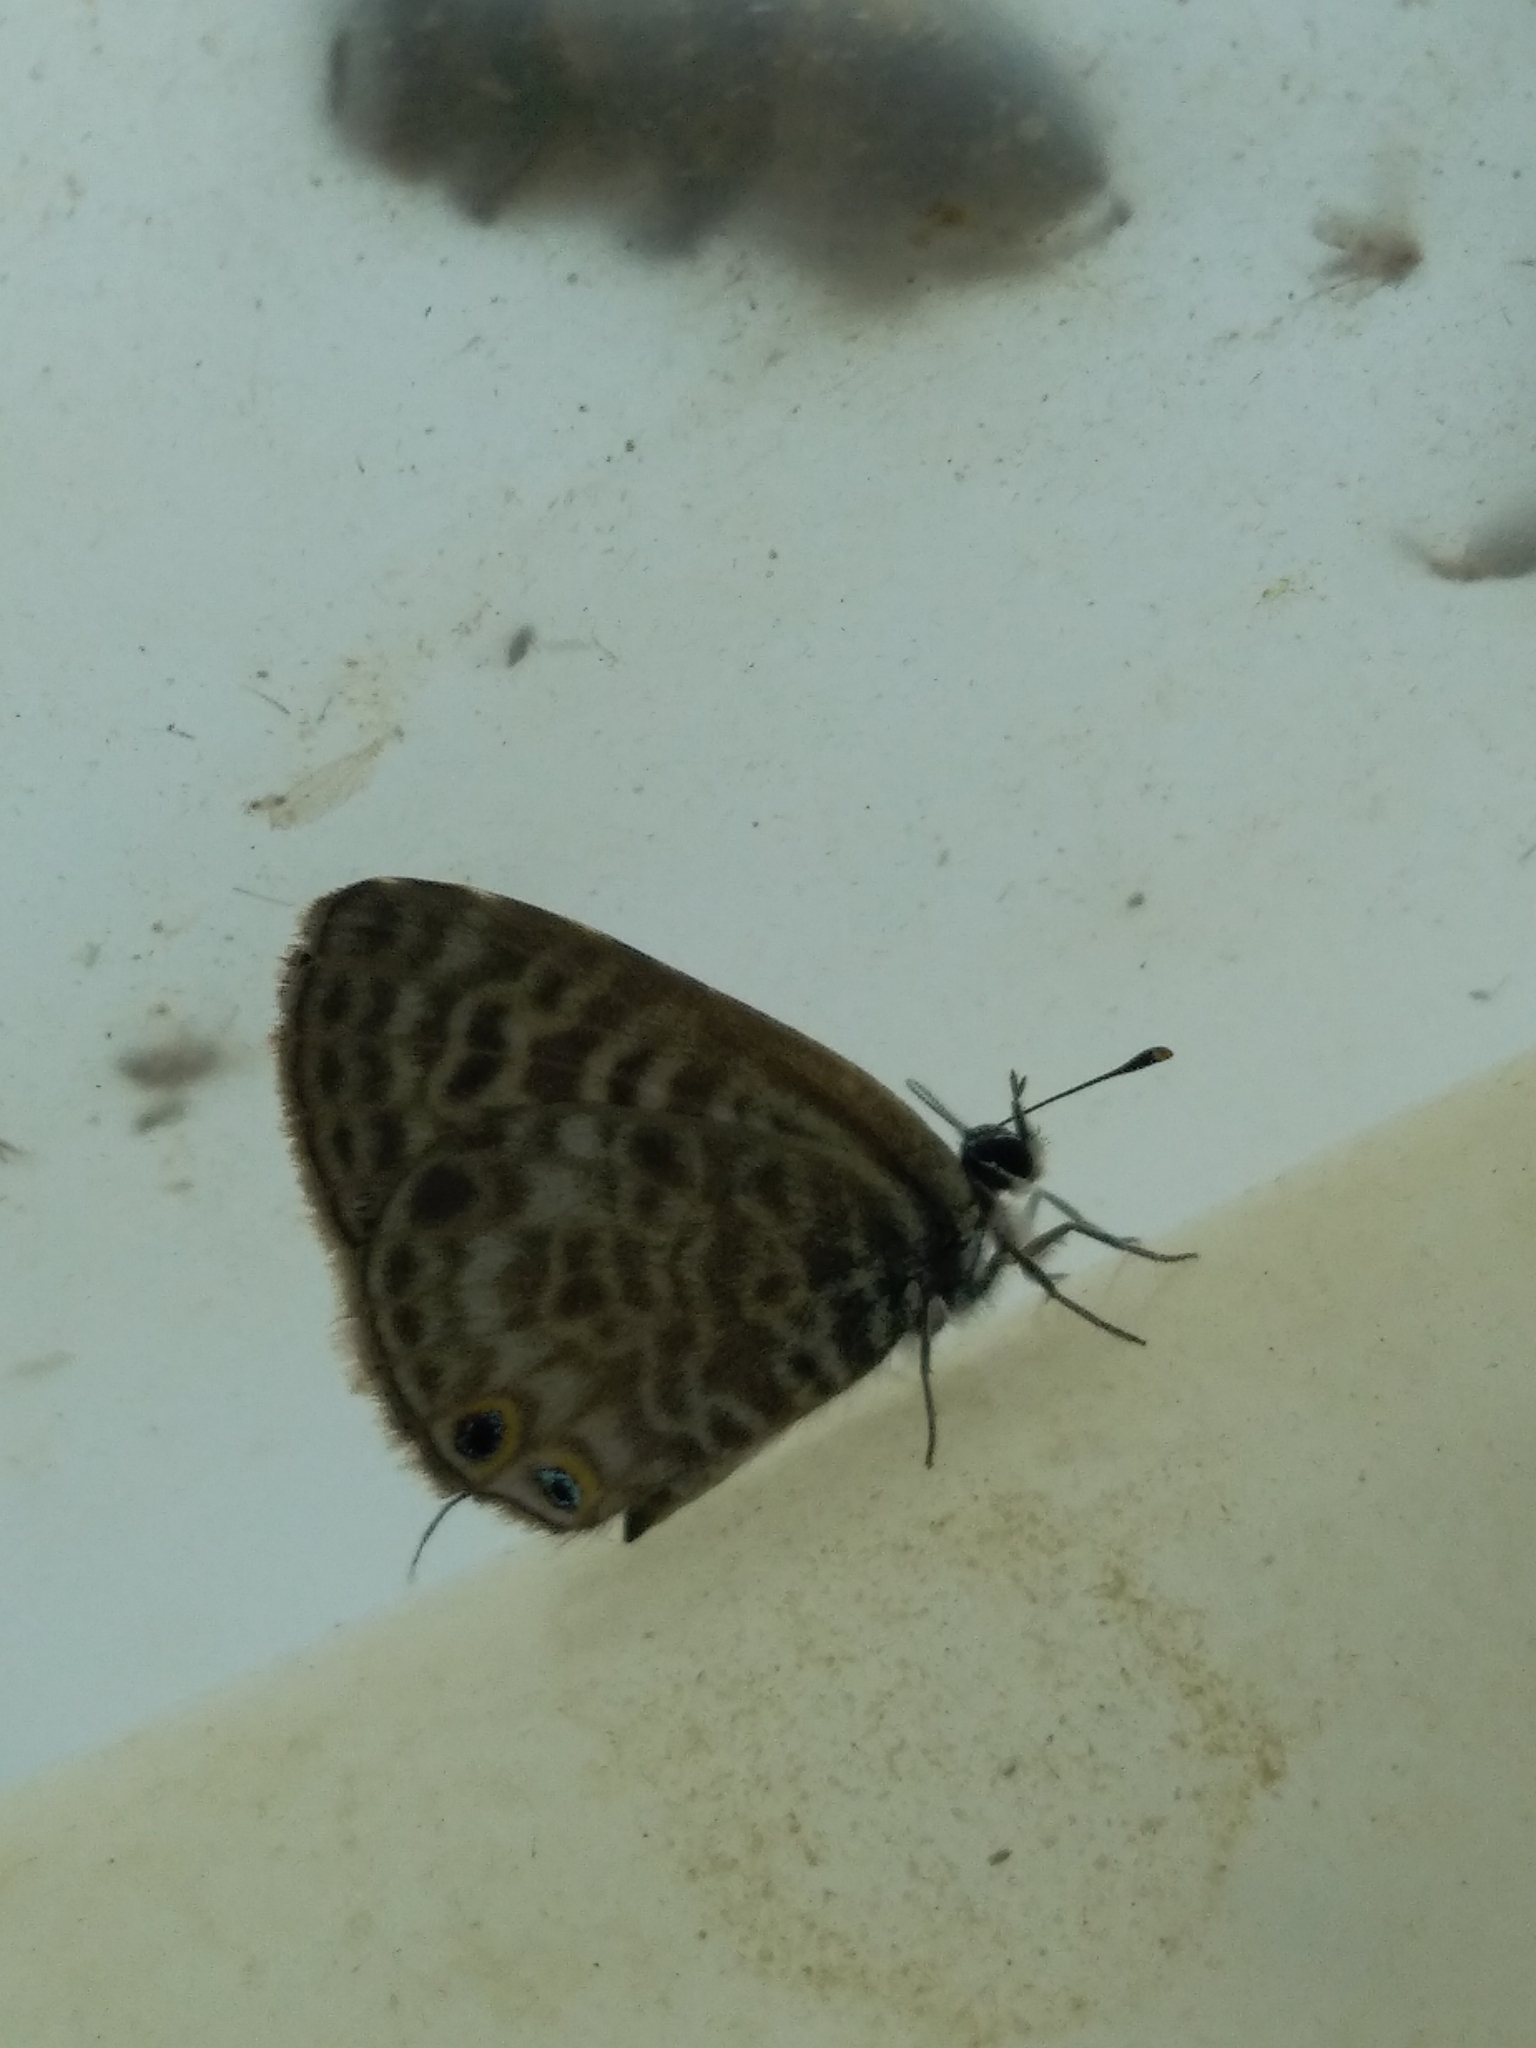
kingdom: Animalia
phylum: Arthropoda
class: Insecta
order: Lepidoptera
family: Lycaenidae
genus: Leptotes
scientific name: Leptotes pirithous
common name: Lang's short-tailed blue
